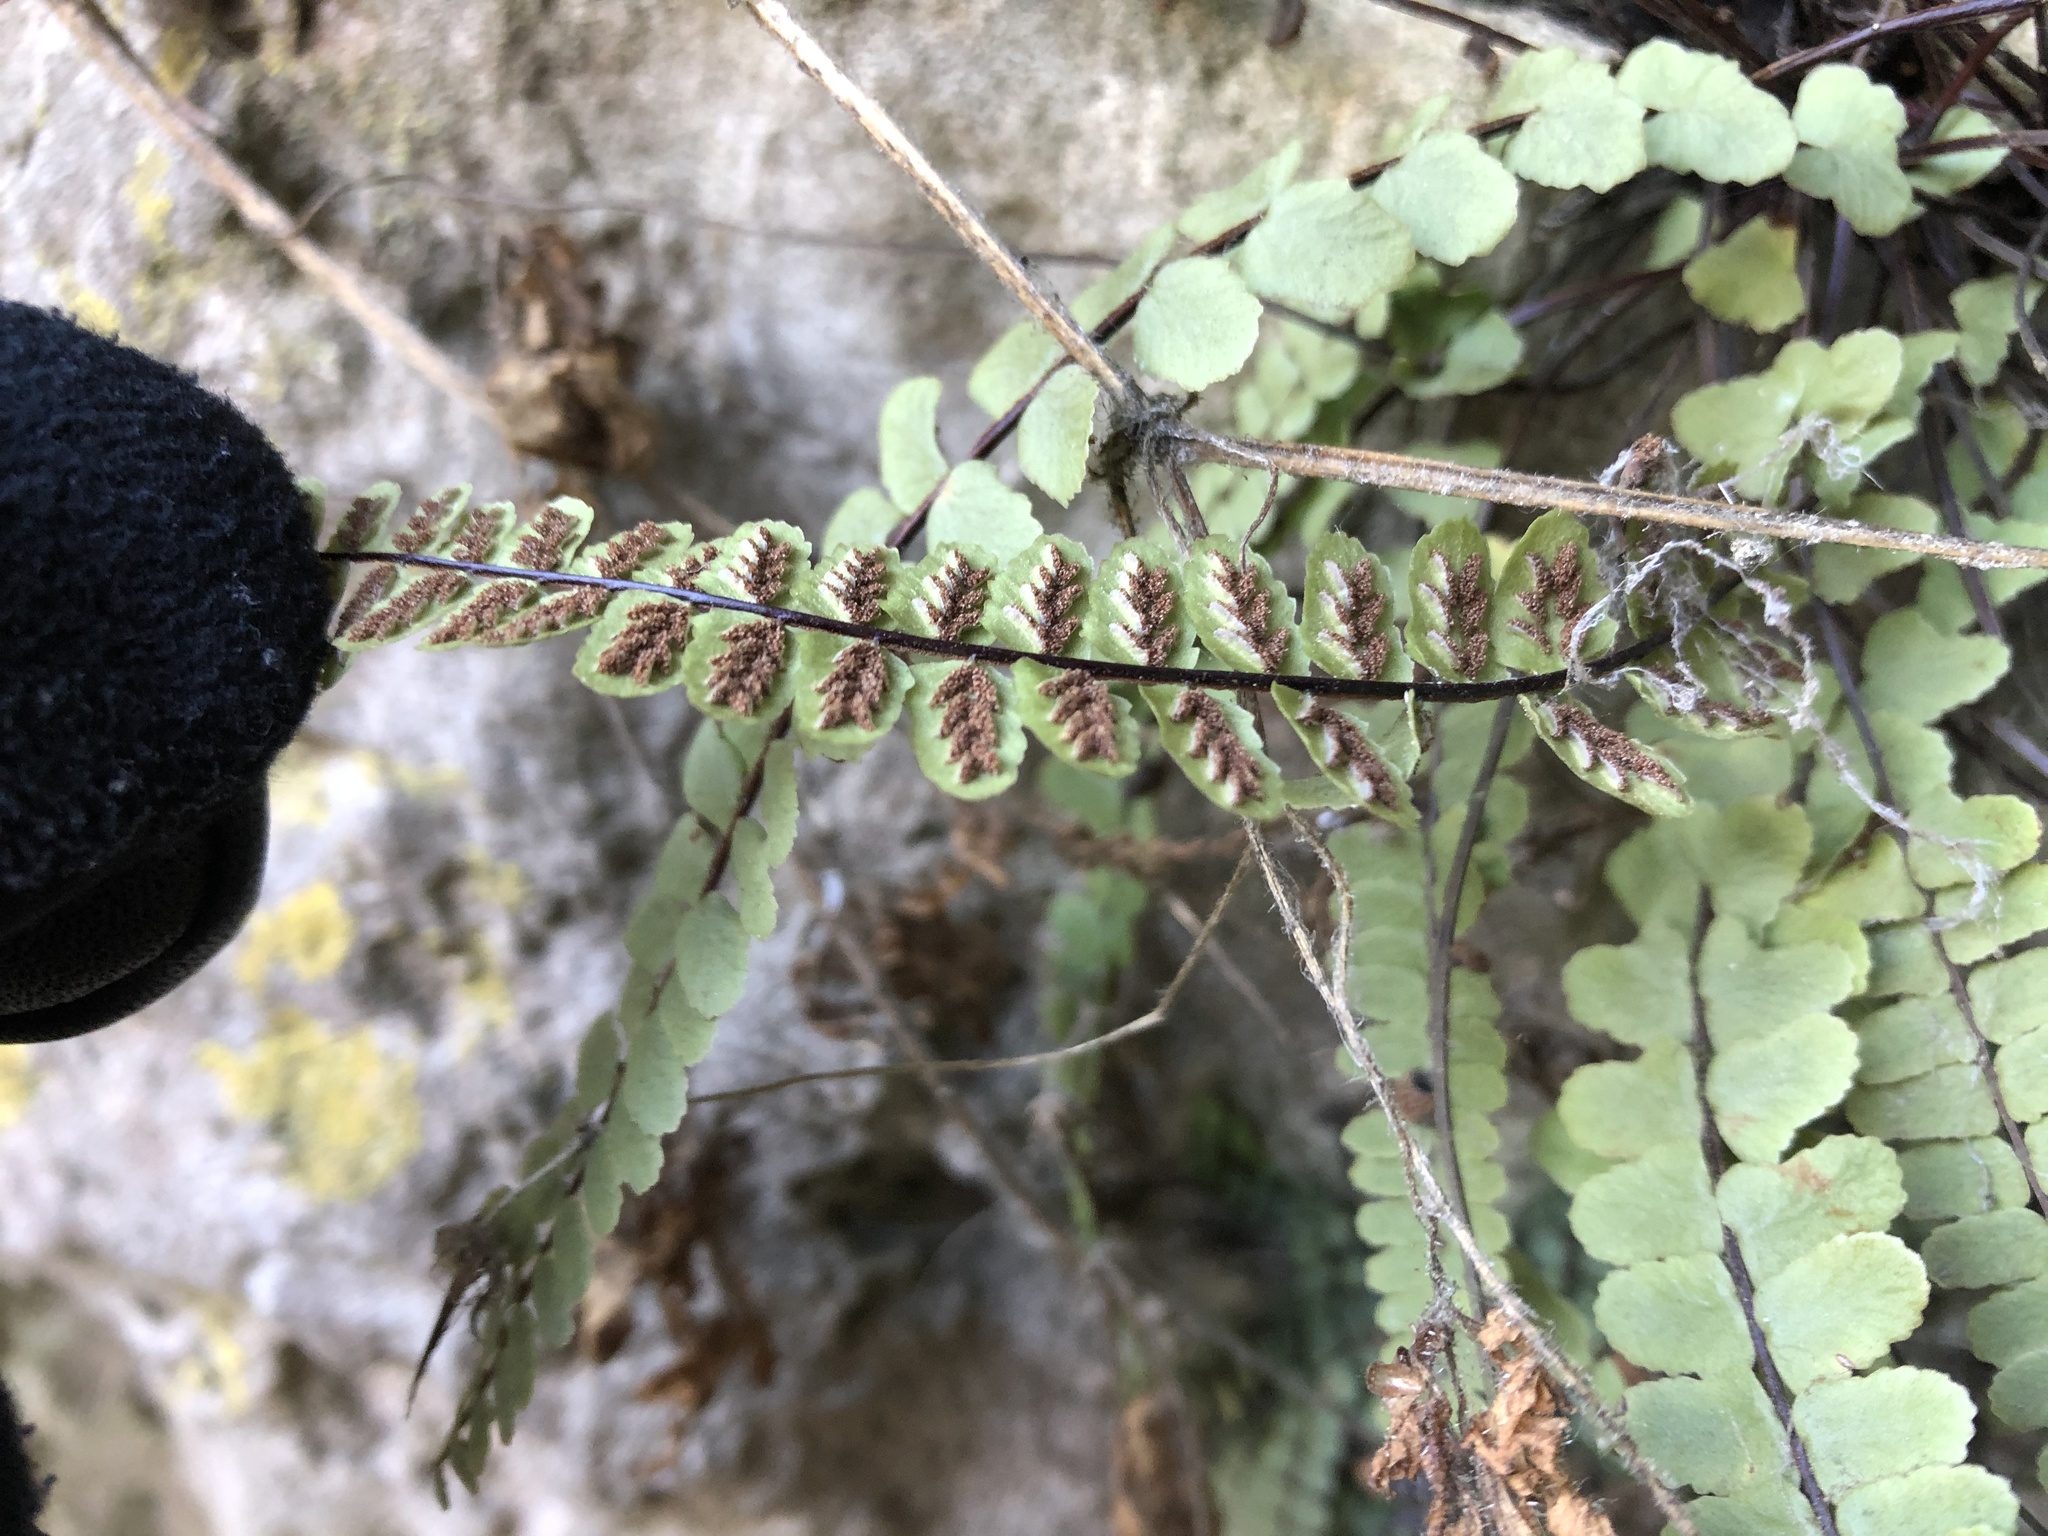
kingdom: Plantae
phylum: Tracheophyta
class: Polypodiopsida
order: Polypodiales
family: Aspleniaceae
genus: Asplenium
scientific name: Asplenium trichomanes
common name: Maidenhair spleenwort
